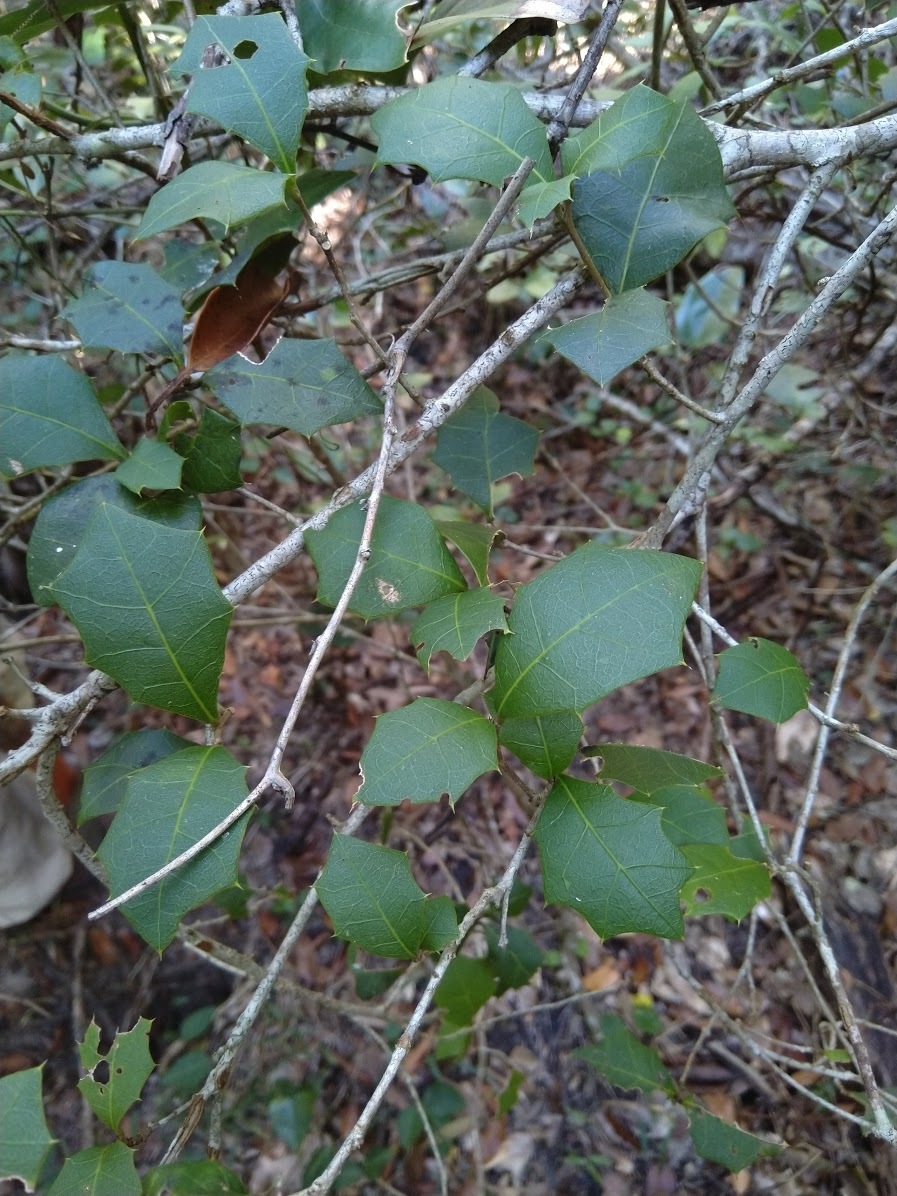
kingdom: Plantae
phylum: Tracheophyta
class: Magnoliopsida
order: Malpighiales
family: Euphorbiaceae
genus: Alchornea
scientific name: Alchornea ilicifolia
